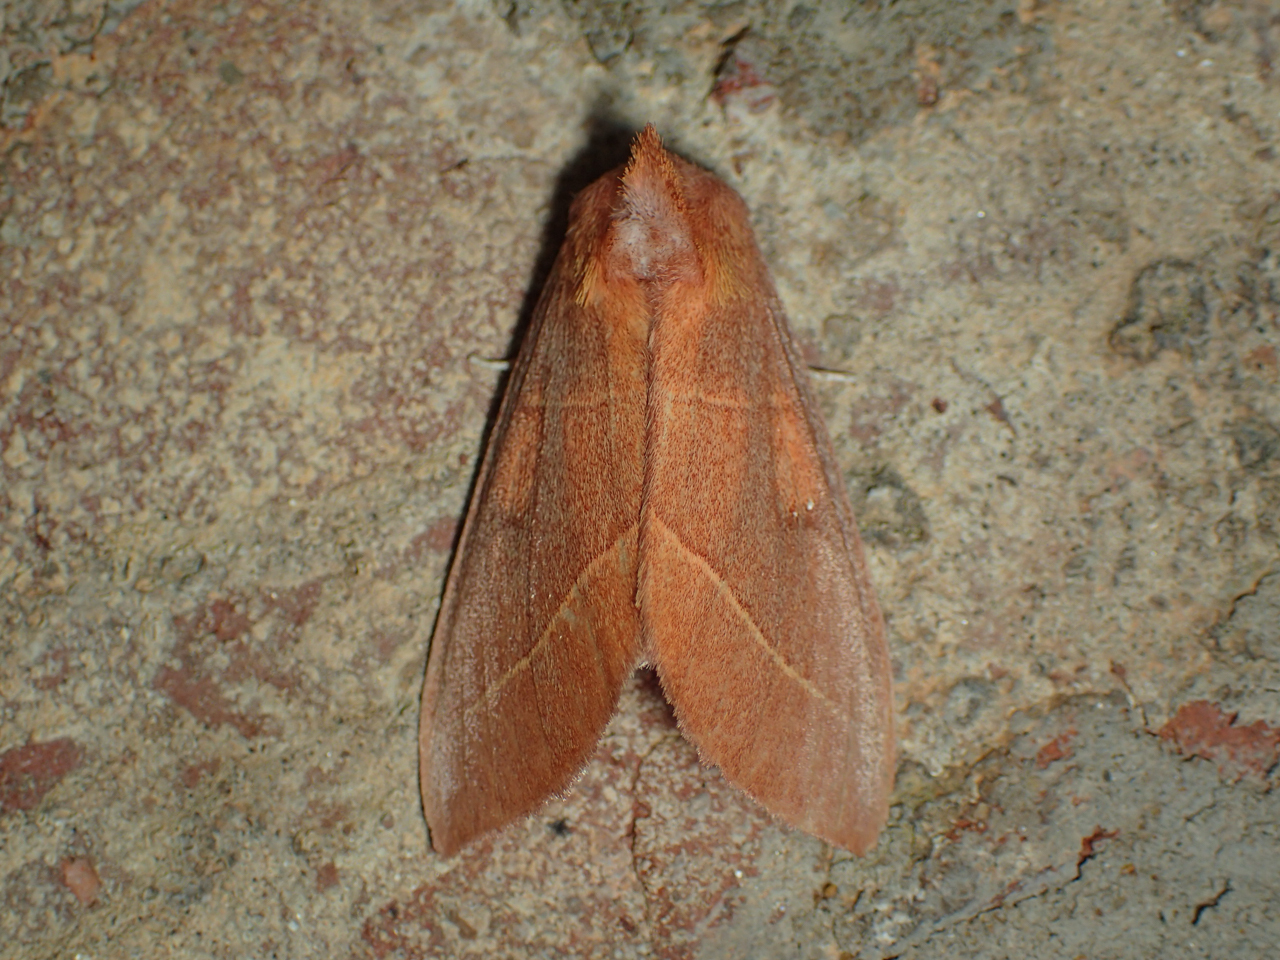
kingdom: Animalia
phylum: Arthropoda
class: Insecta
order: Lepidoptera
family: Notodontidae
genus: Nadata
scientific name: Nadata gibbosa
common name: White-dotted prominent
